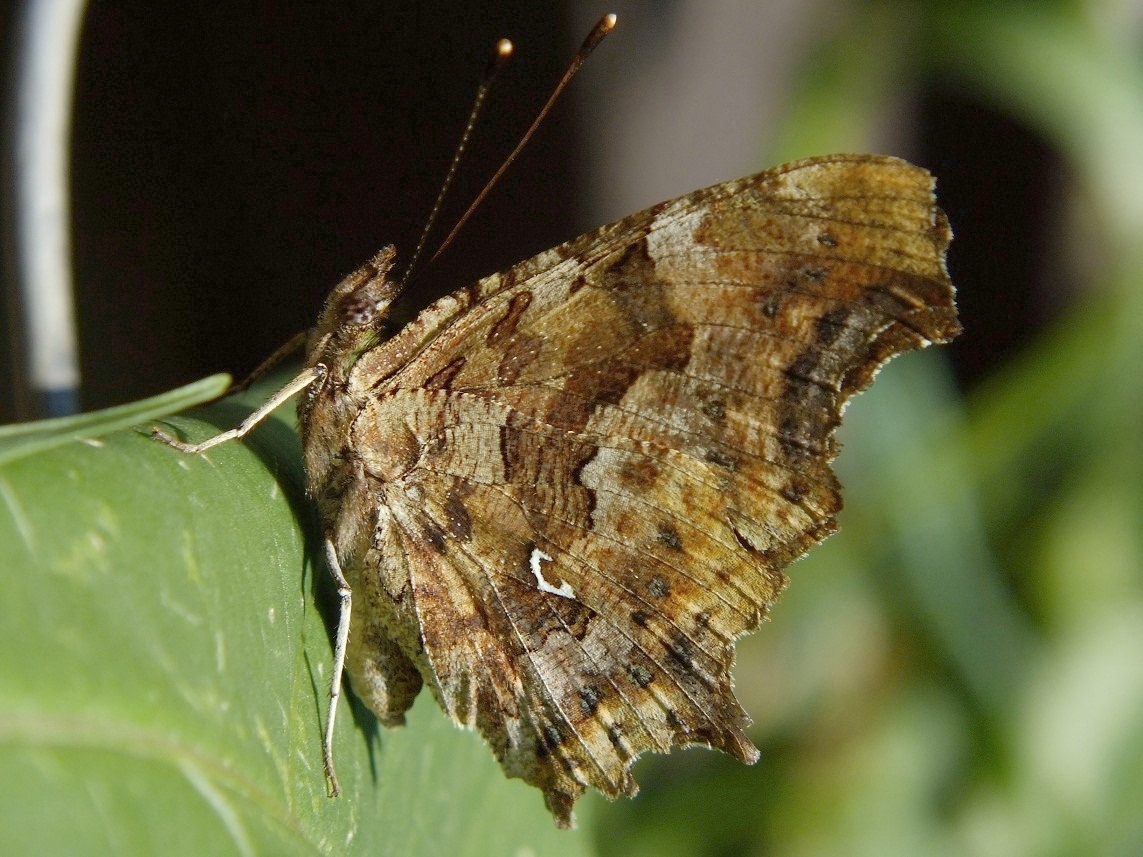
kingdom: Animalia
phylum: Arthropoda
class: Insecta
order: Lepidoptera
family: Nymphalidae
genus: Polygonia
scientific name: Polygonia c-album
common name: Comma
